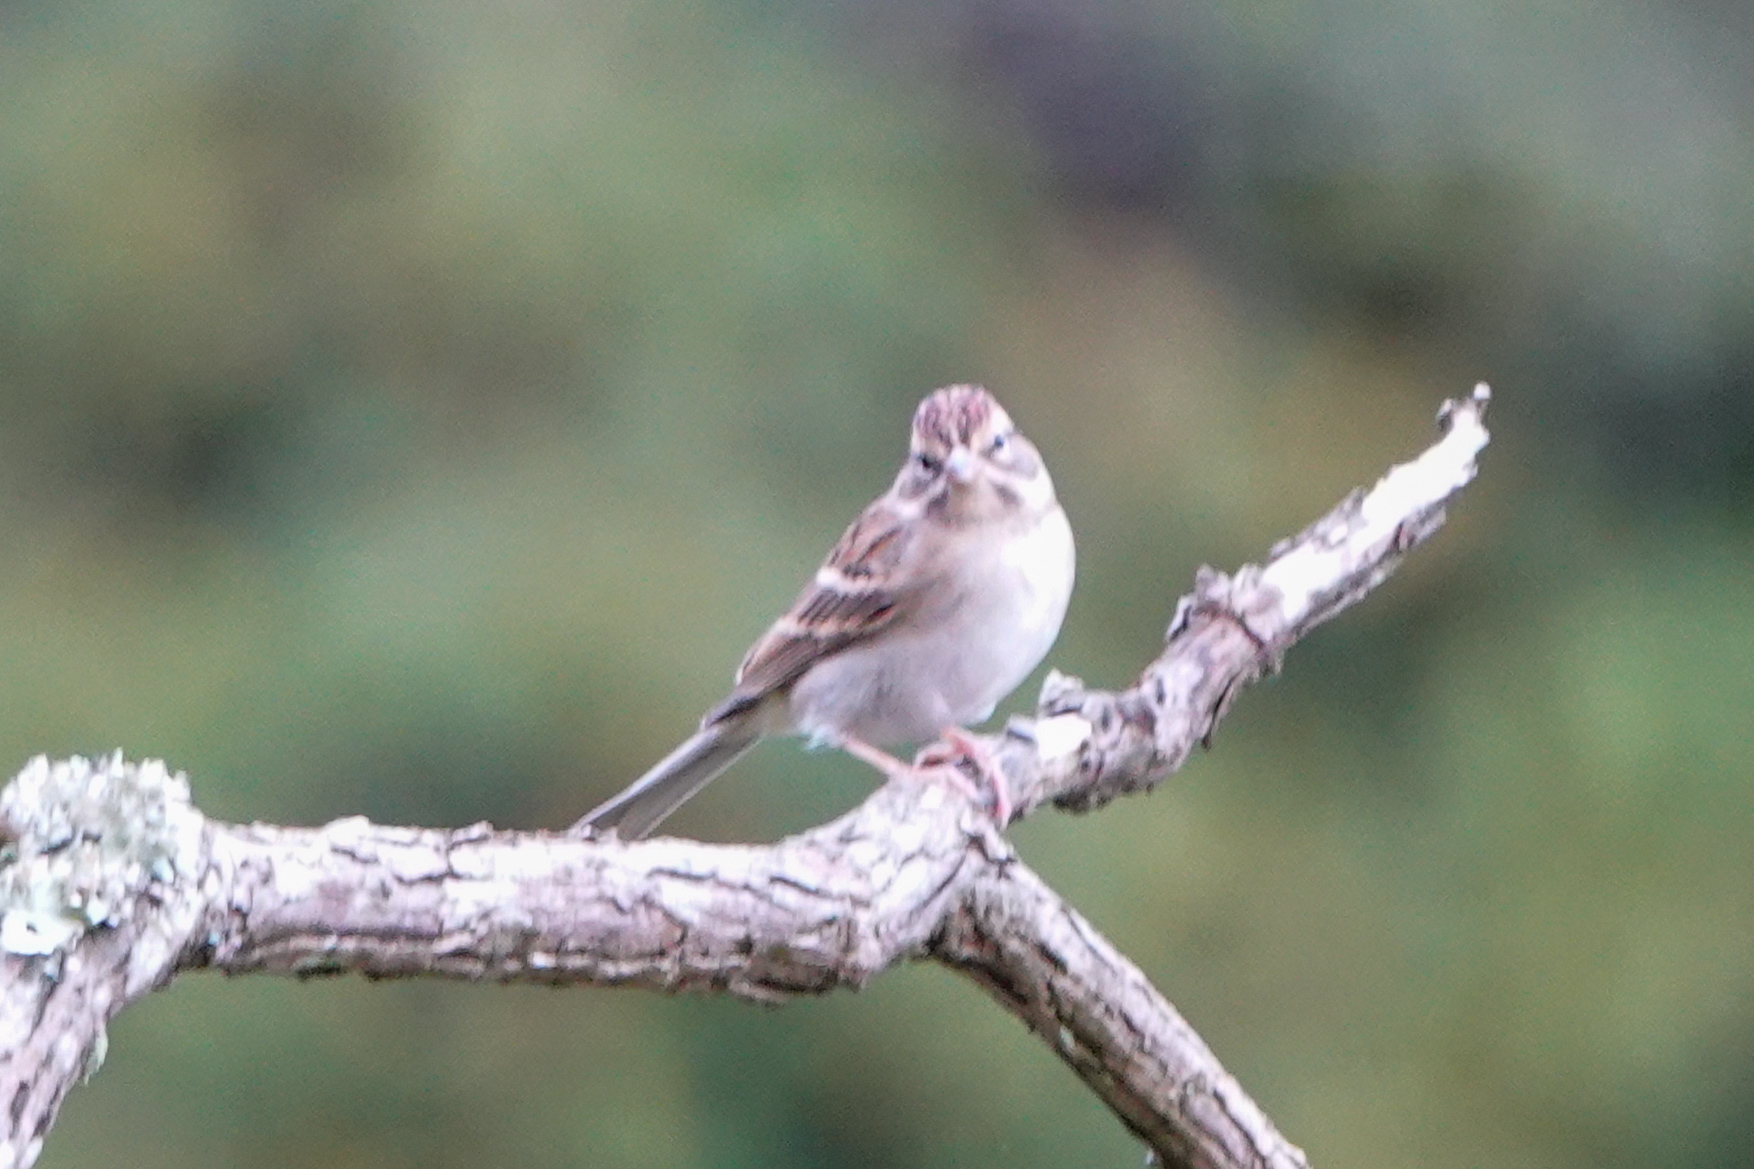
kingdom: Animalia
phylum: Chordata
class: Aves
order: Passeriformes
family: Passerellidae
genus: Spizella
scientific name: Spizella passerina
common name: Chipping sparrow
